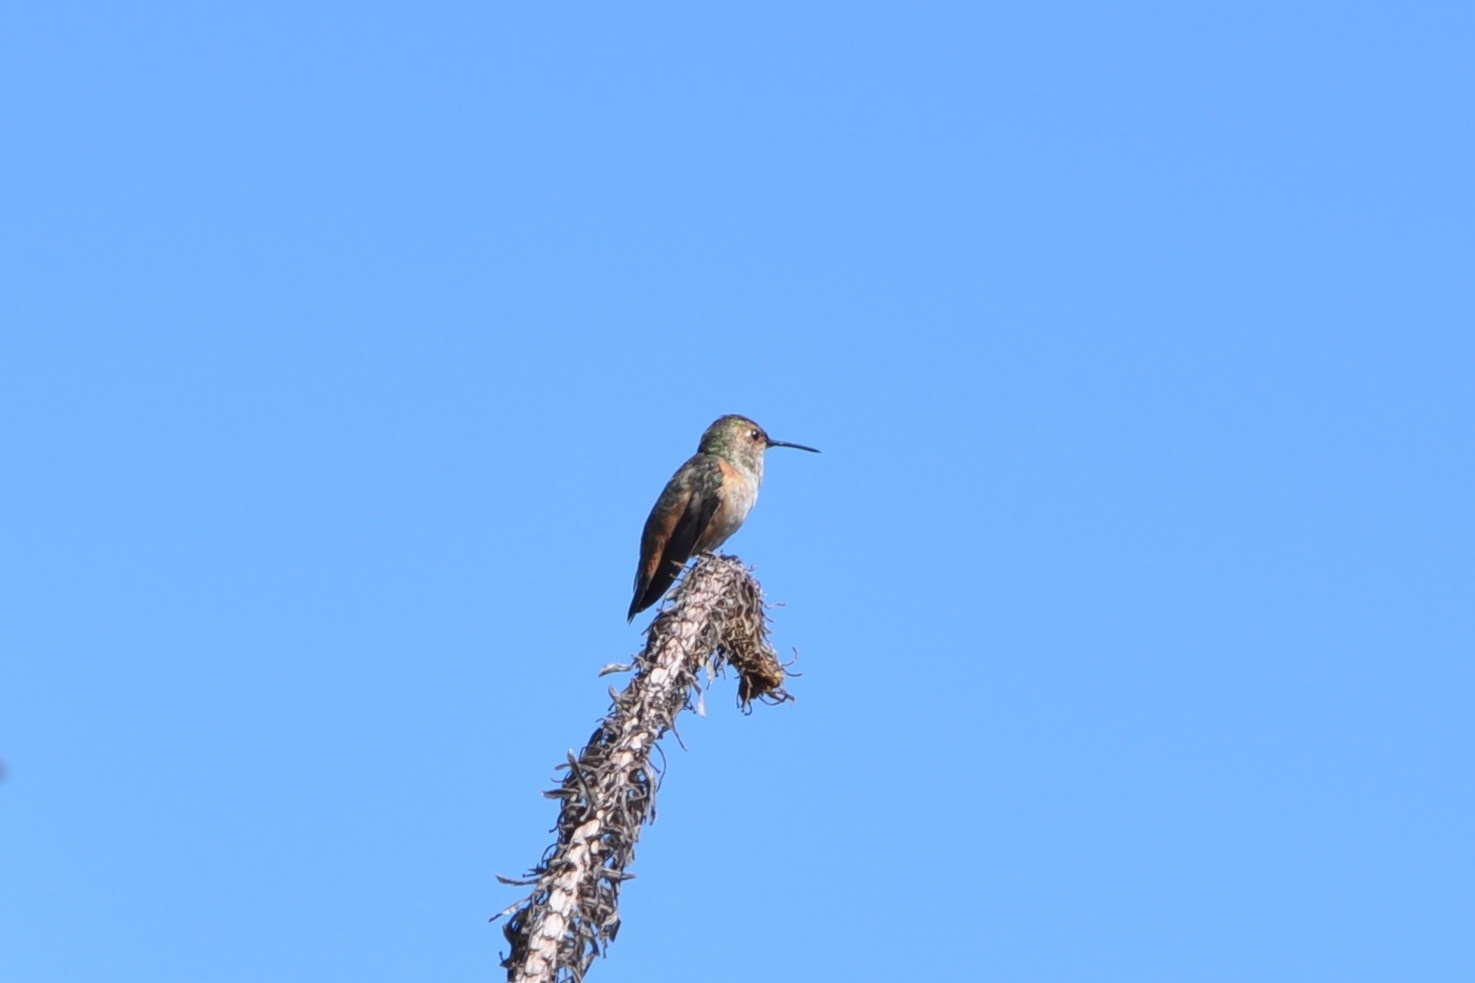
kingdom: Animalia
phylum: Chordata
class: Aves
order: Apodiformes
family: Trochilidae
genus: Selasphorus
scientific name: Selasphorus
